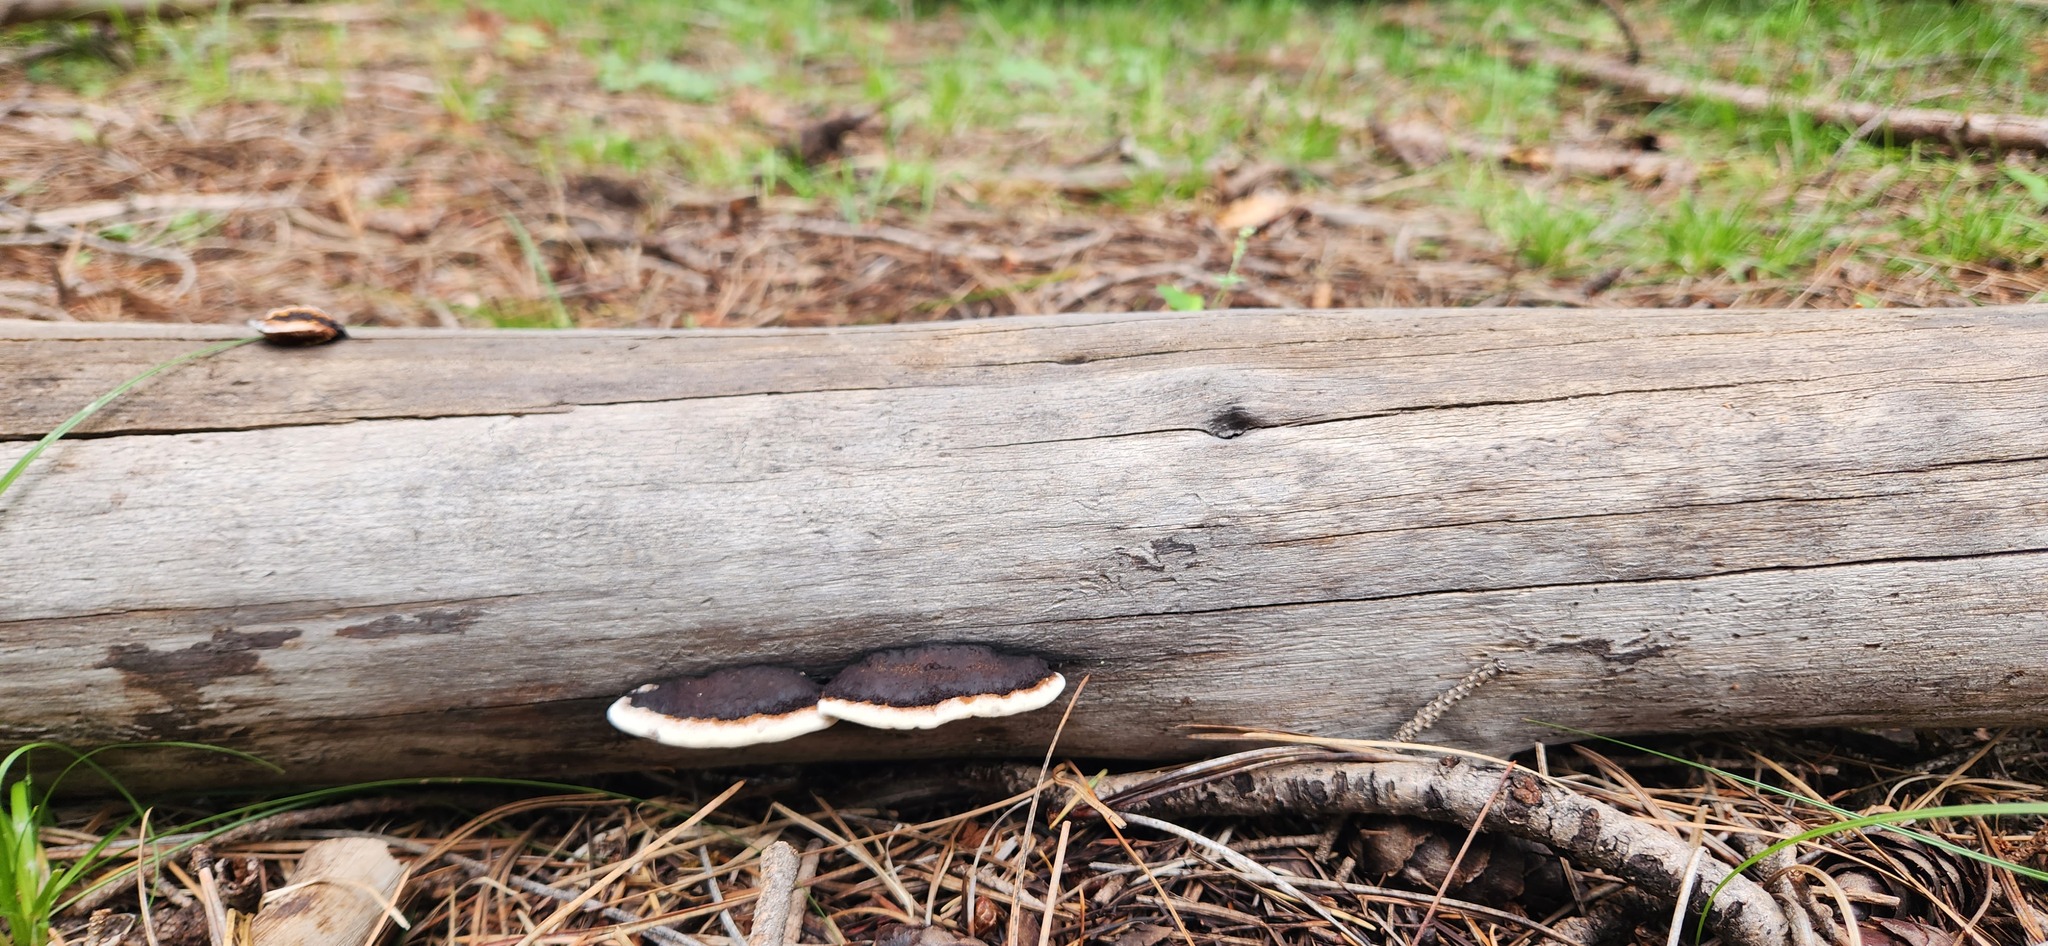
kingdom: Fungi
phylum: Basidiomycota
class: Agaricomycetes
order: Gloeophyllales
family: Gloeophyllaceae
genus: Gloeophyllum
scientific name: Gloeophyllum sepiarium
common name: Conifer mazegill
